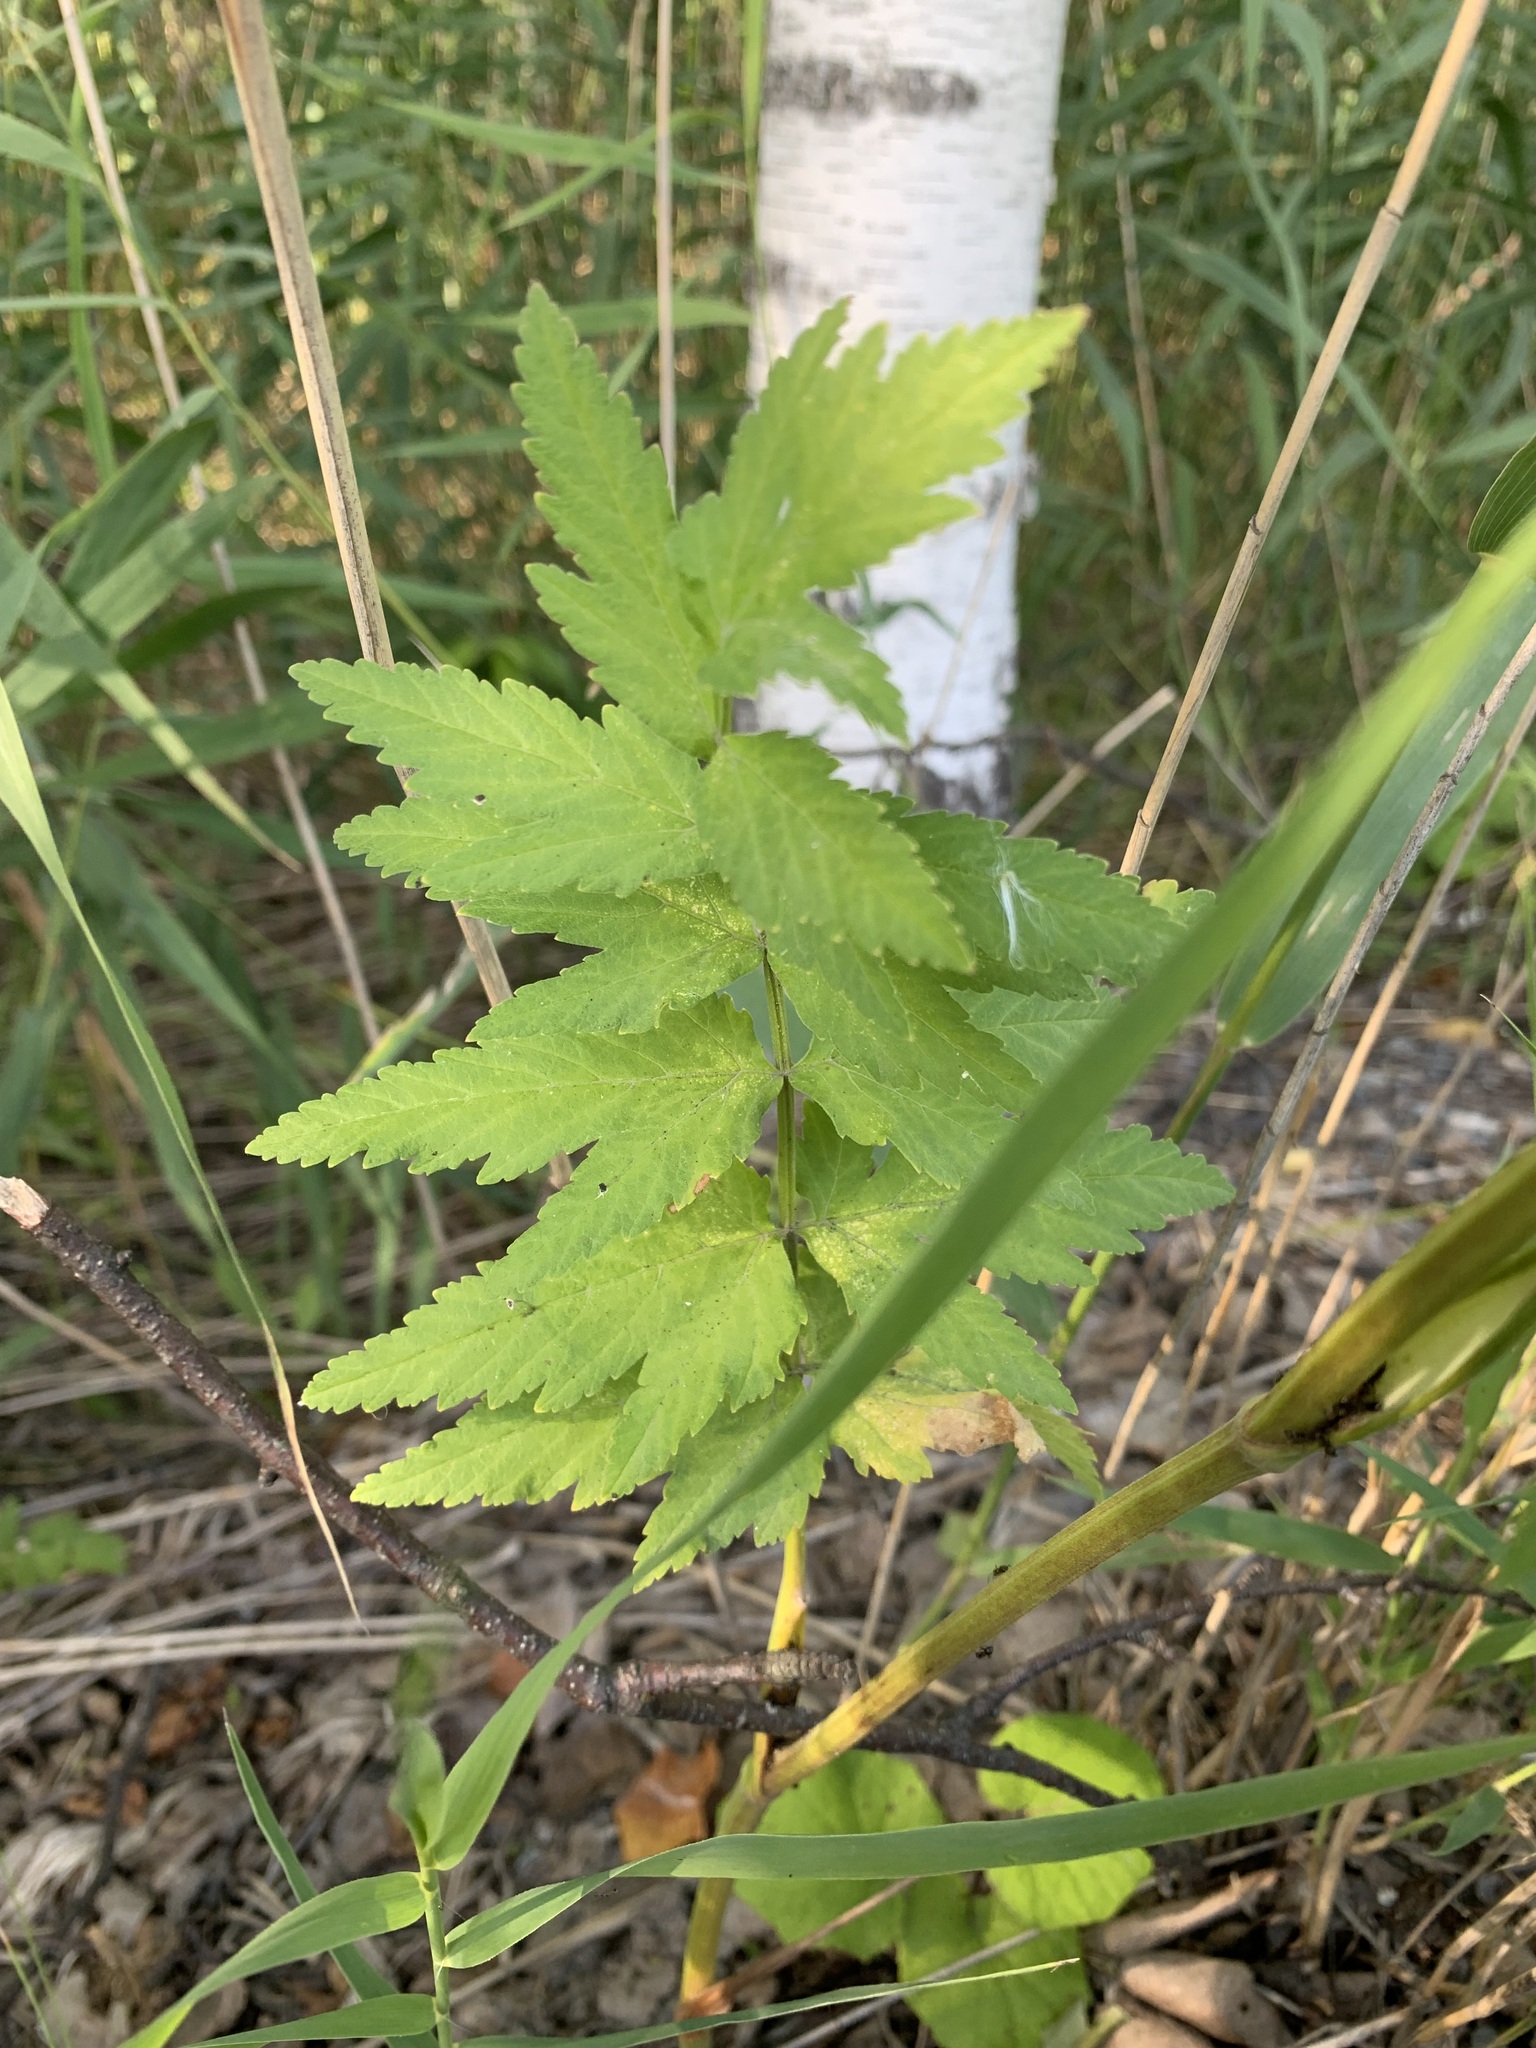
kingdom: Plantae
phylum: Tracheophyta
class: Magnoliopsida
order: Apiales
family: Apiaceae
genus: Pastinaca
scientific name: Pastinaca sativa
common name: Wild parsnip
